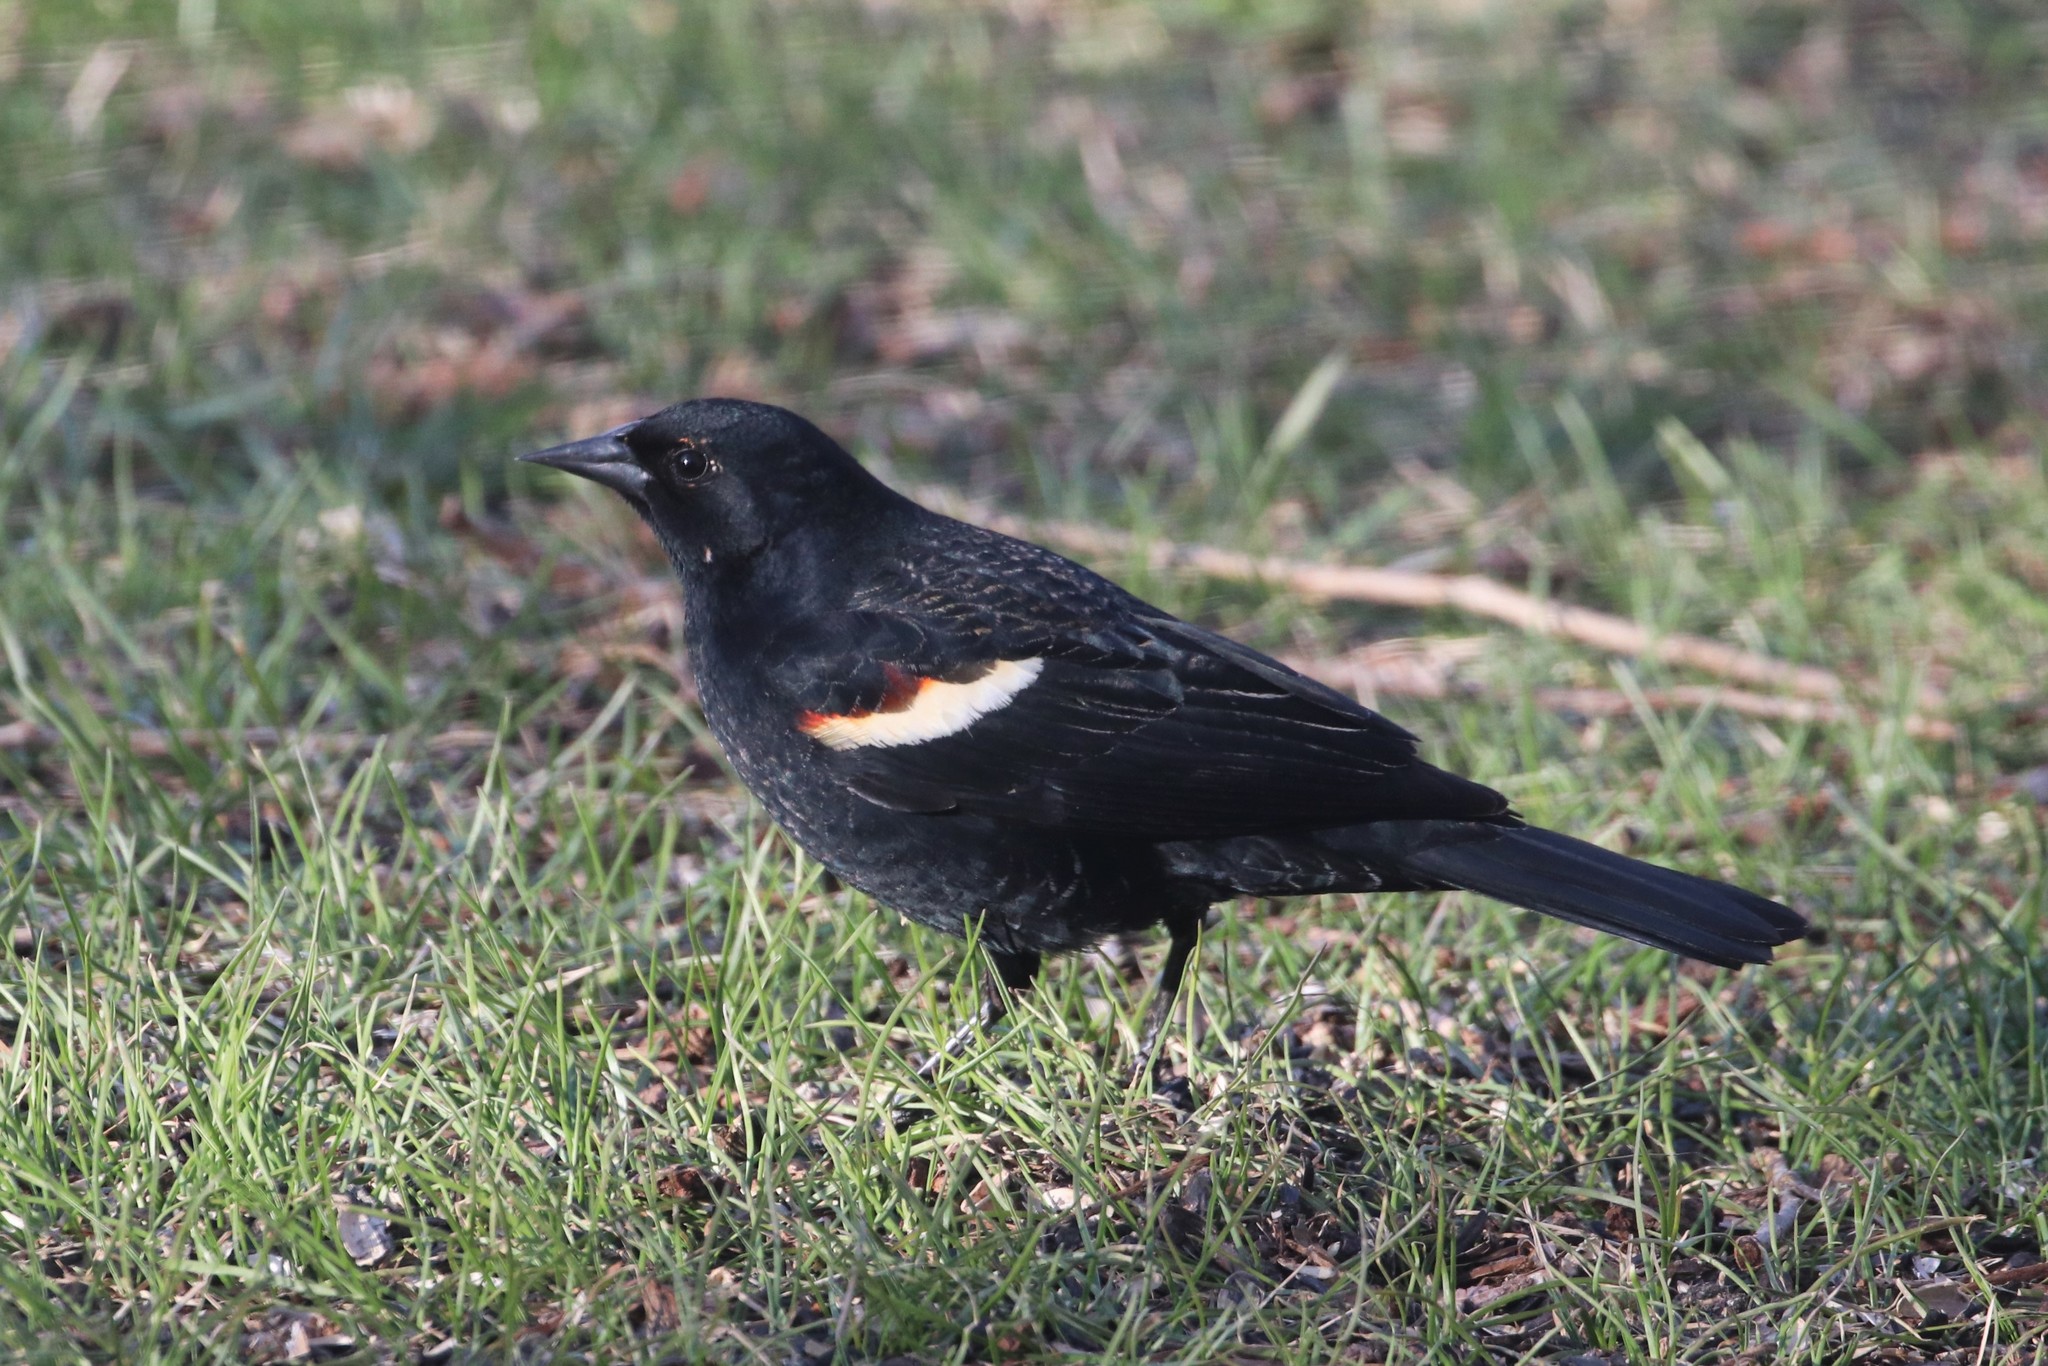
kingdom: Animalia
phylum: Chordata
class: Aves
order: Passeriformes
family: Icteridae
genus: Agelaius
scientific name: Agelaius phoeniceus
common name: Red-winged blackbird
